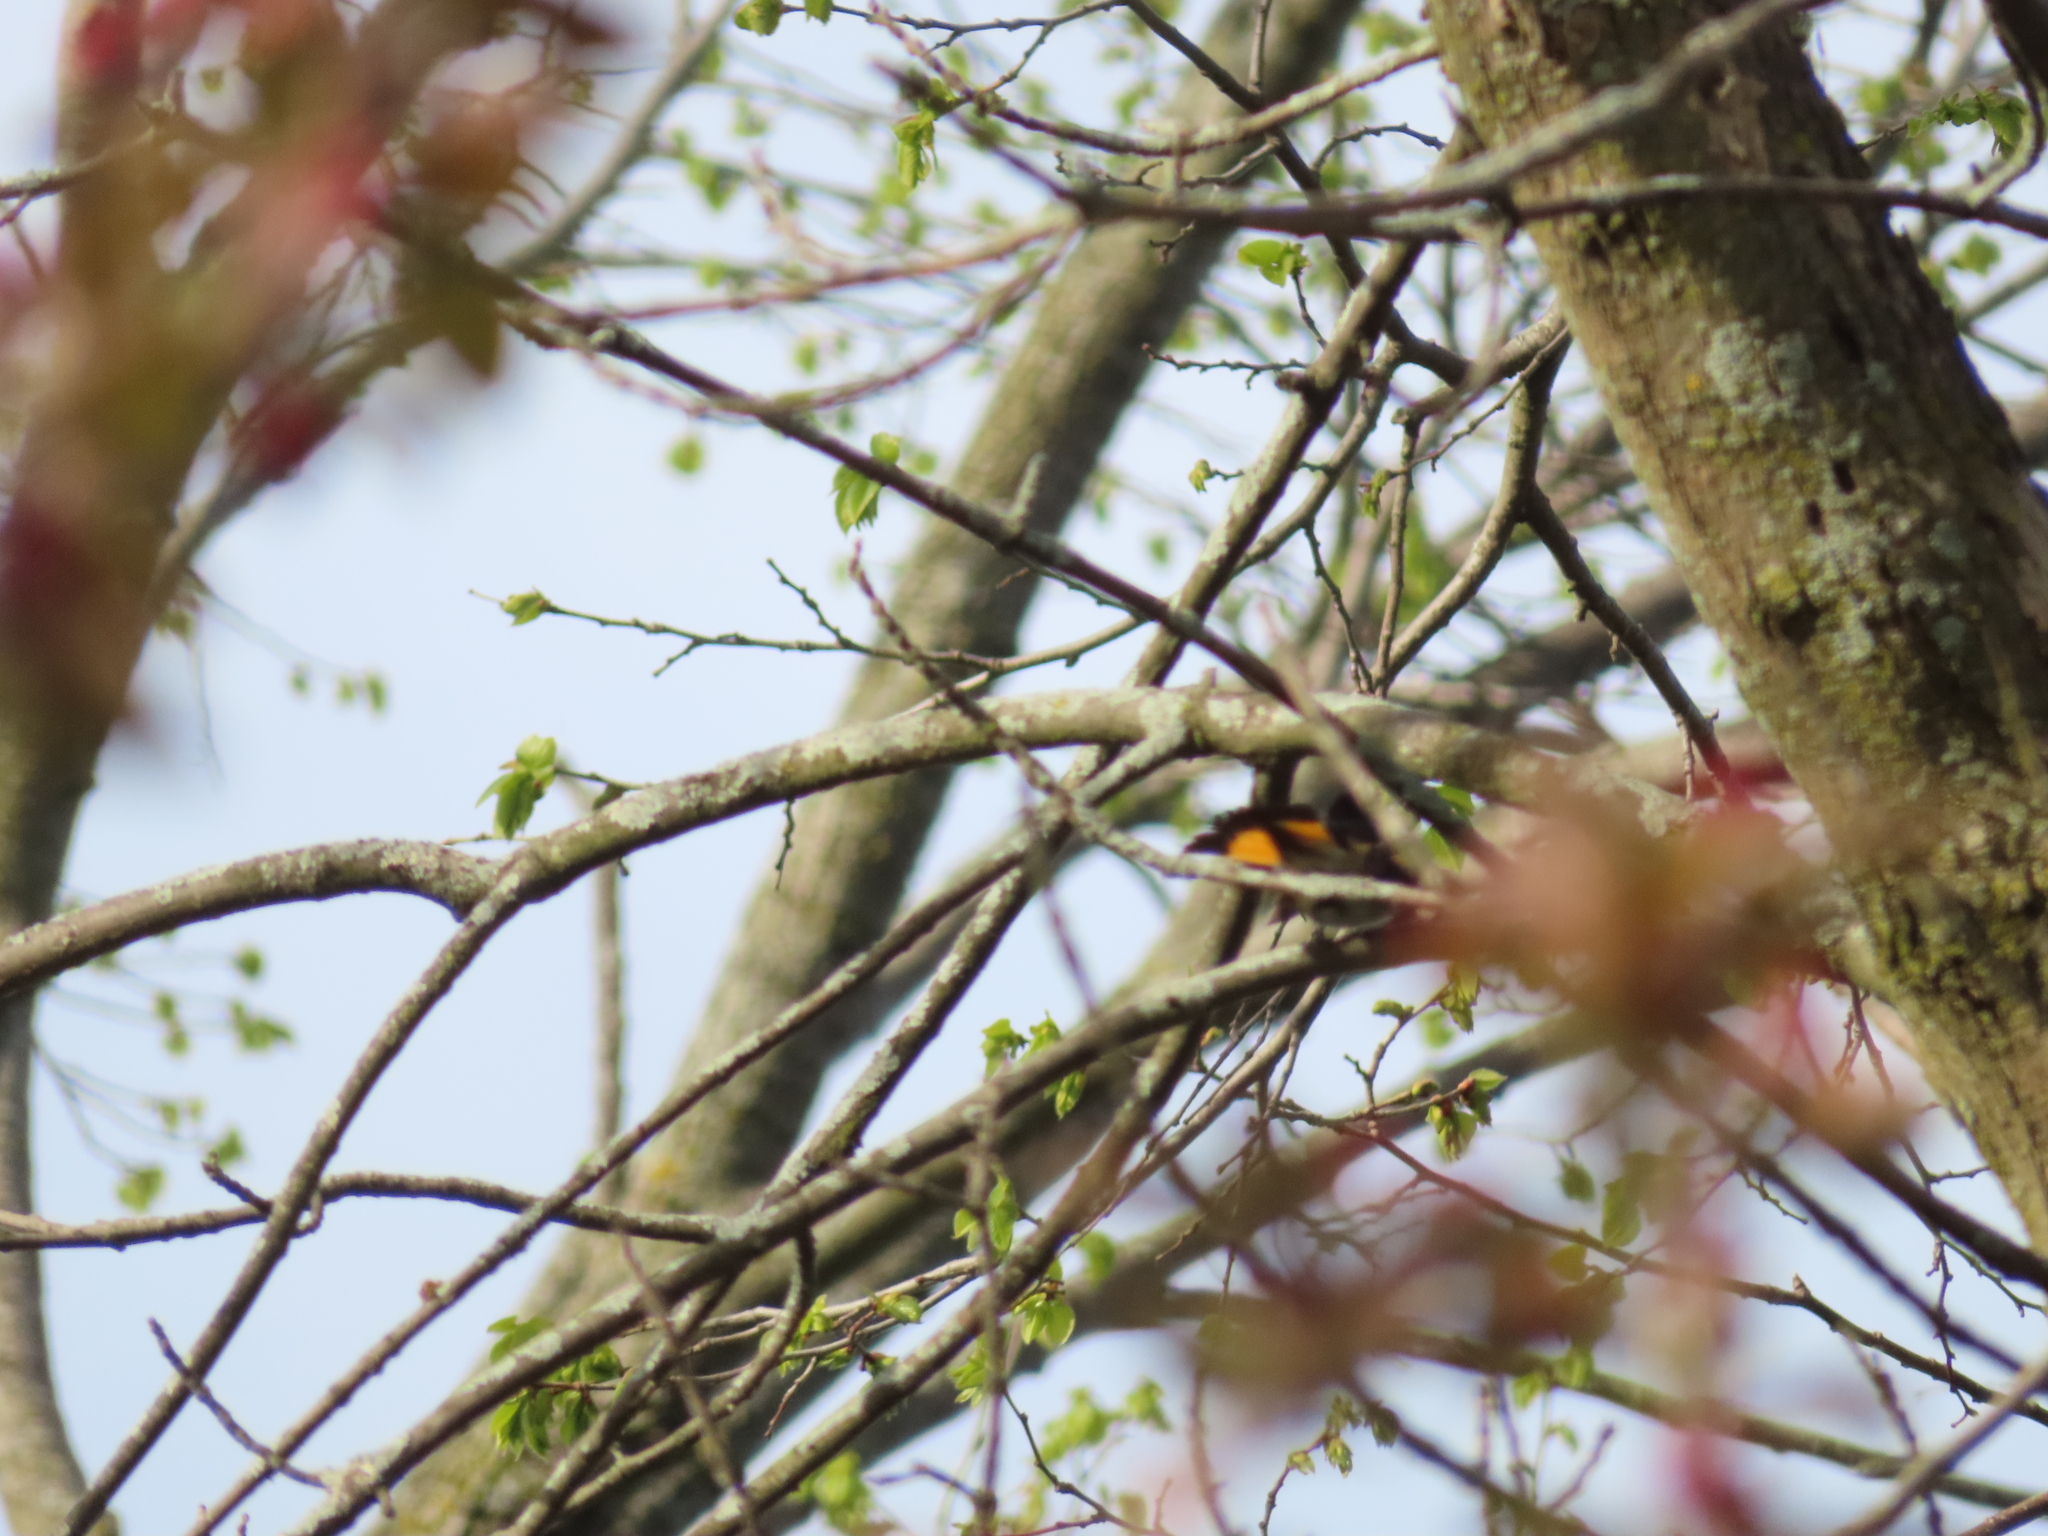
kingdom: Animalia
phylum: Chordata
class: Aves
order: Passeriformes
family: Parulidae
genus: Setophaga
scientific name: Setophaga ruticilla
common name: American redstart
